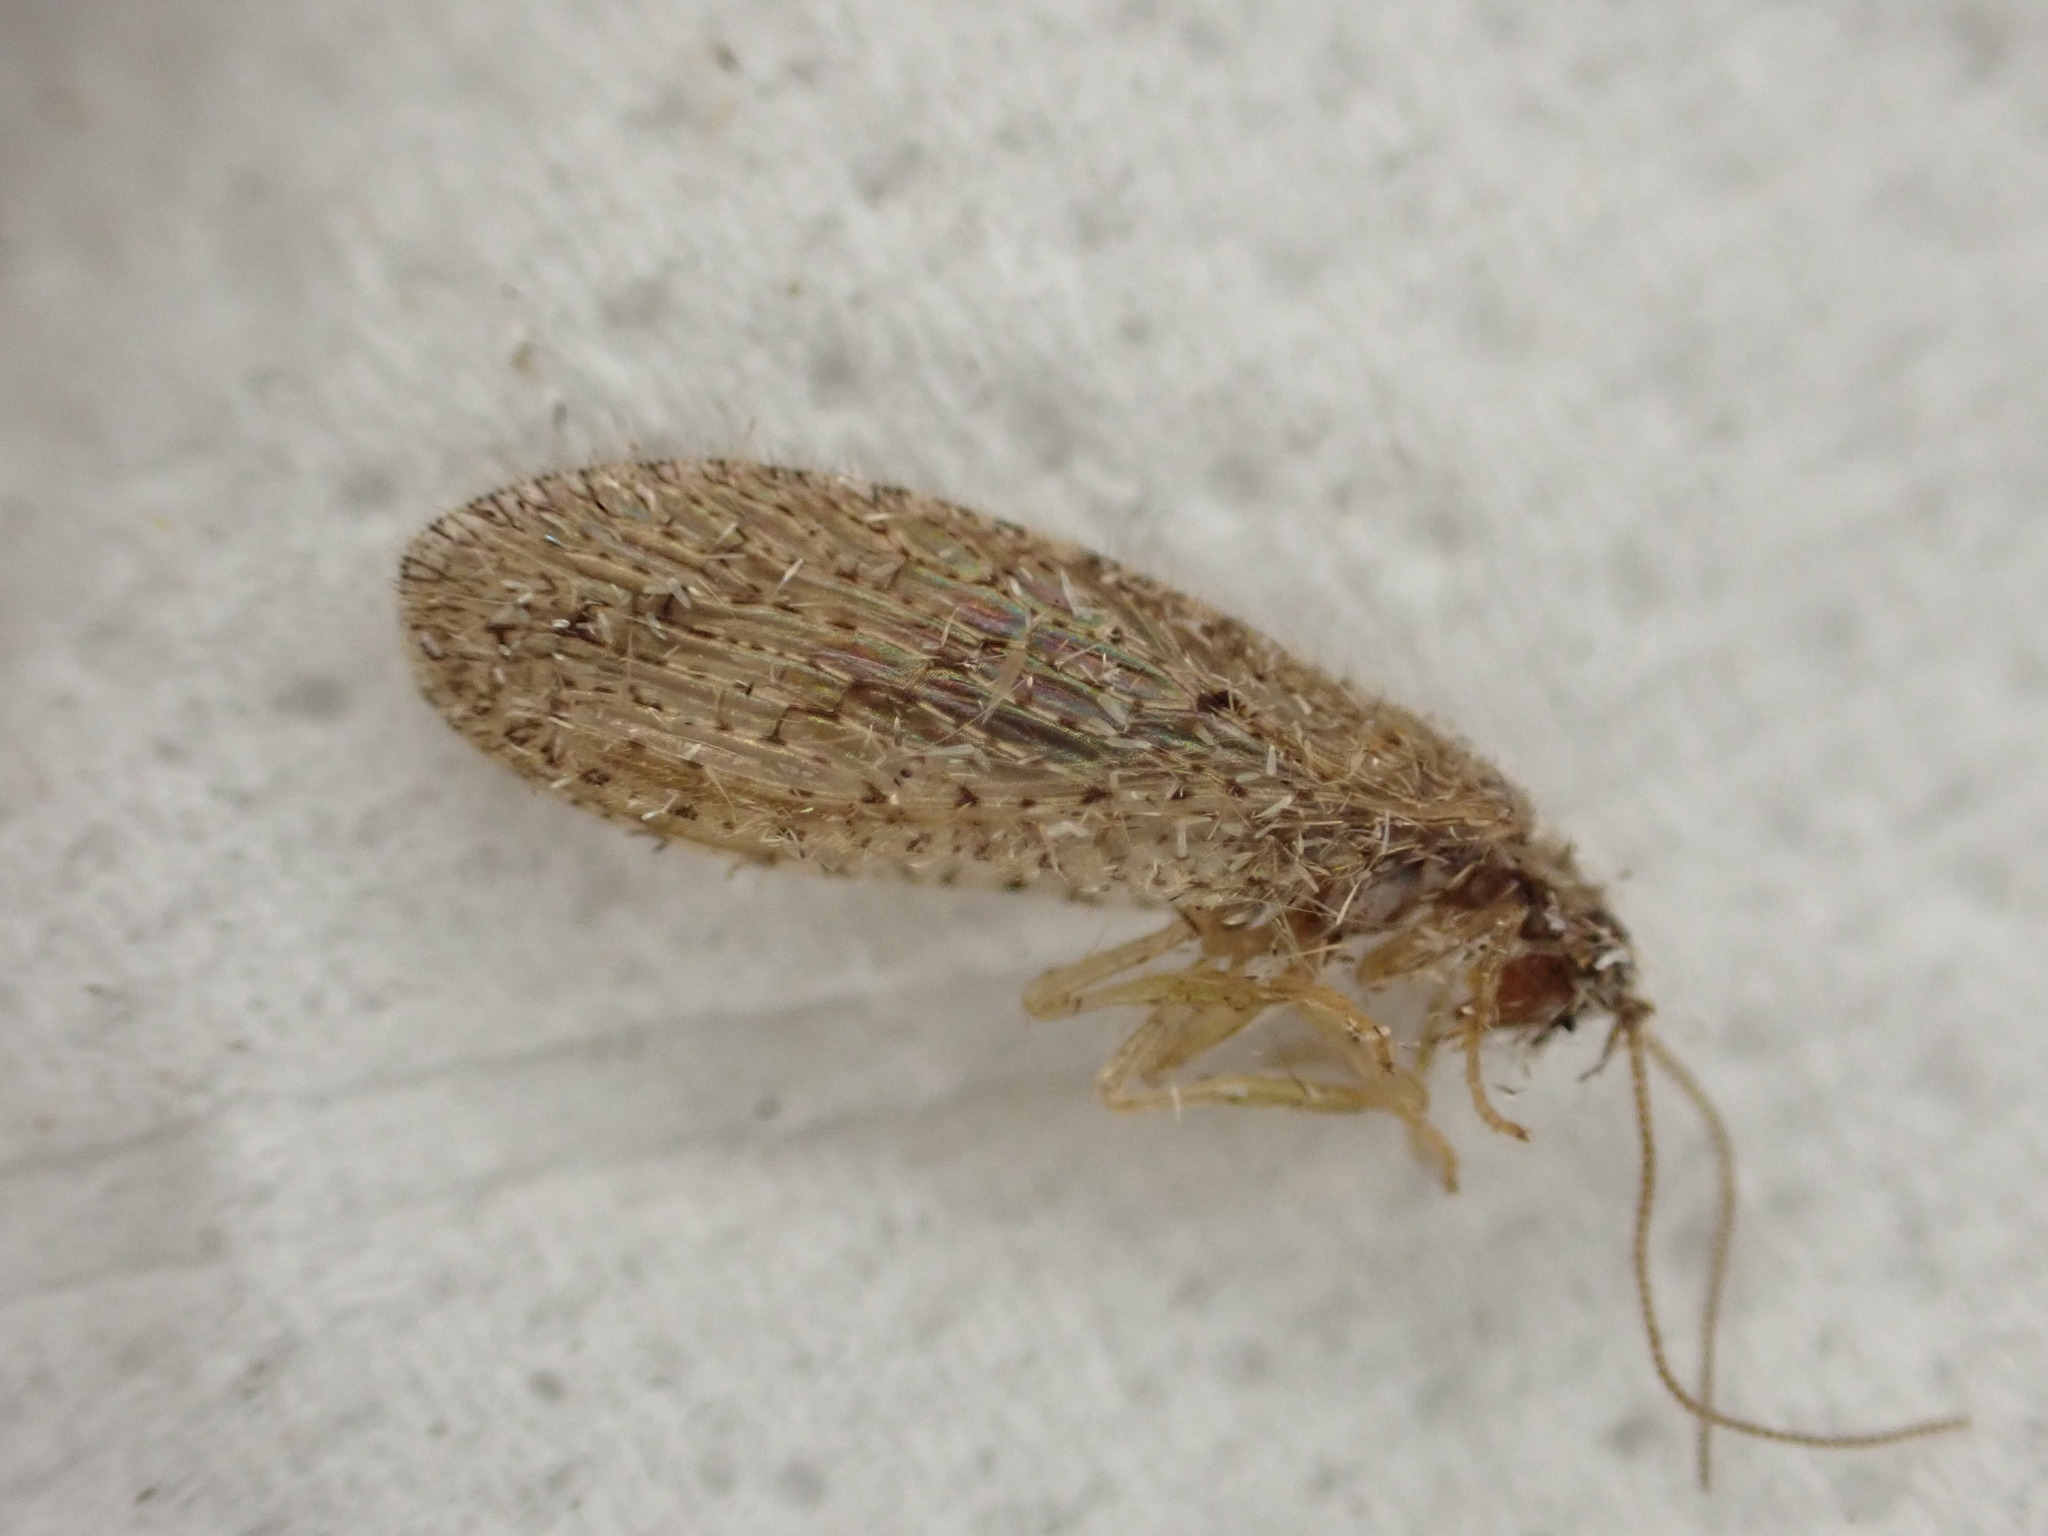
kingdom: Animalia
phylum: Arthropoda
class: Insecta
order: Neuroptera
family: Hemerobiidae
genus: Micromus
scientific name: Micromus tasmaniae
